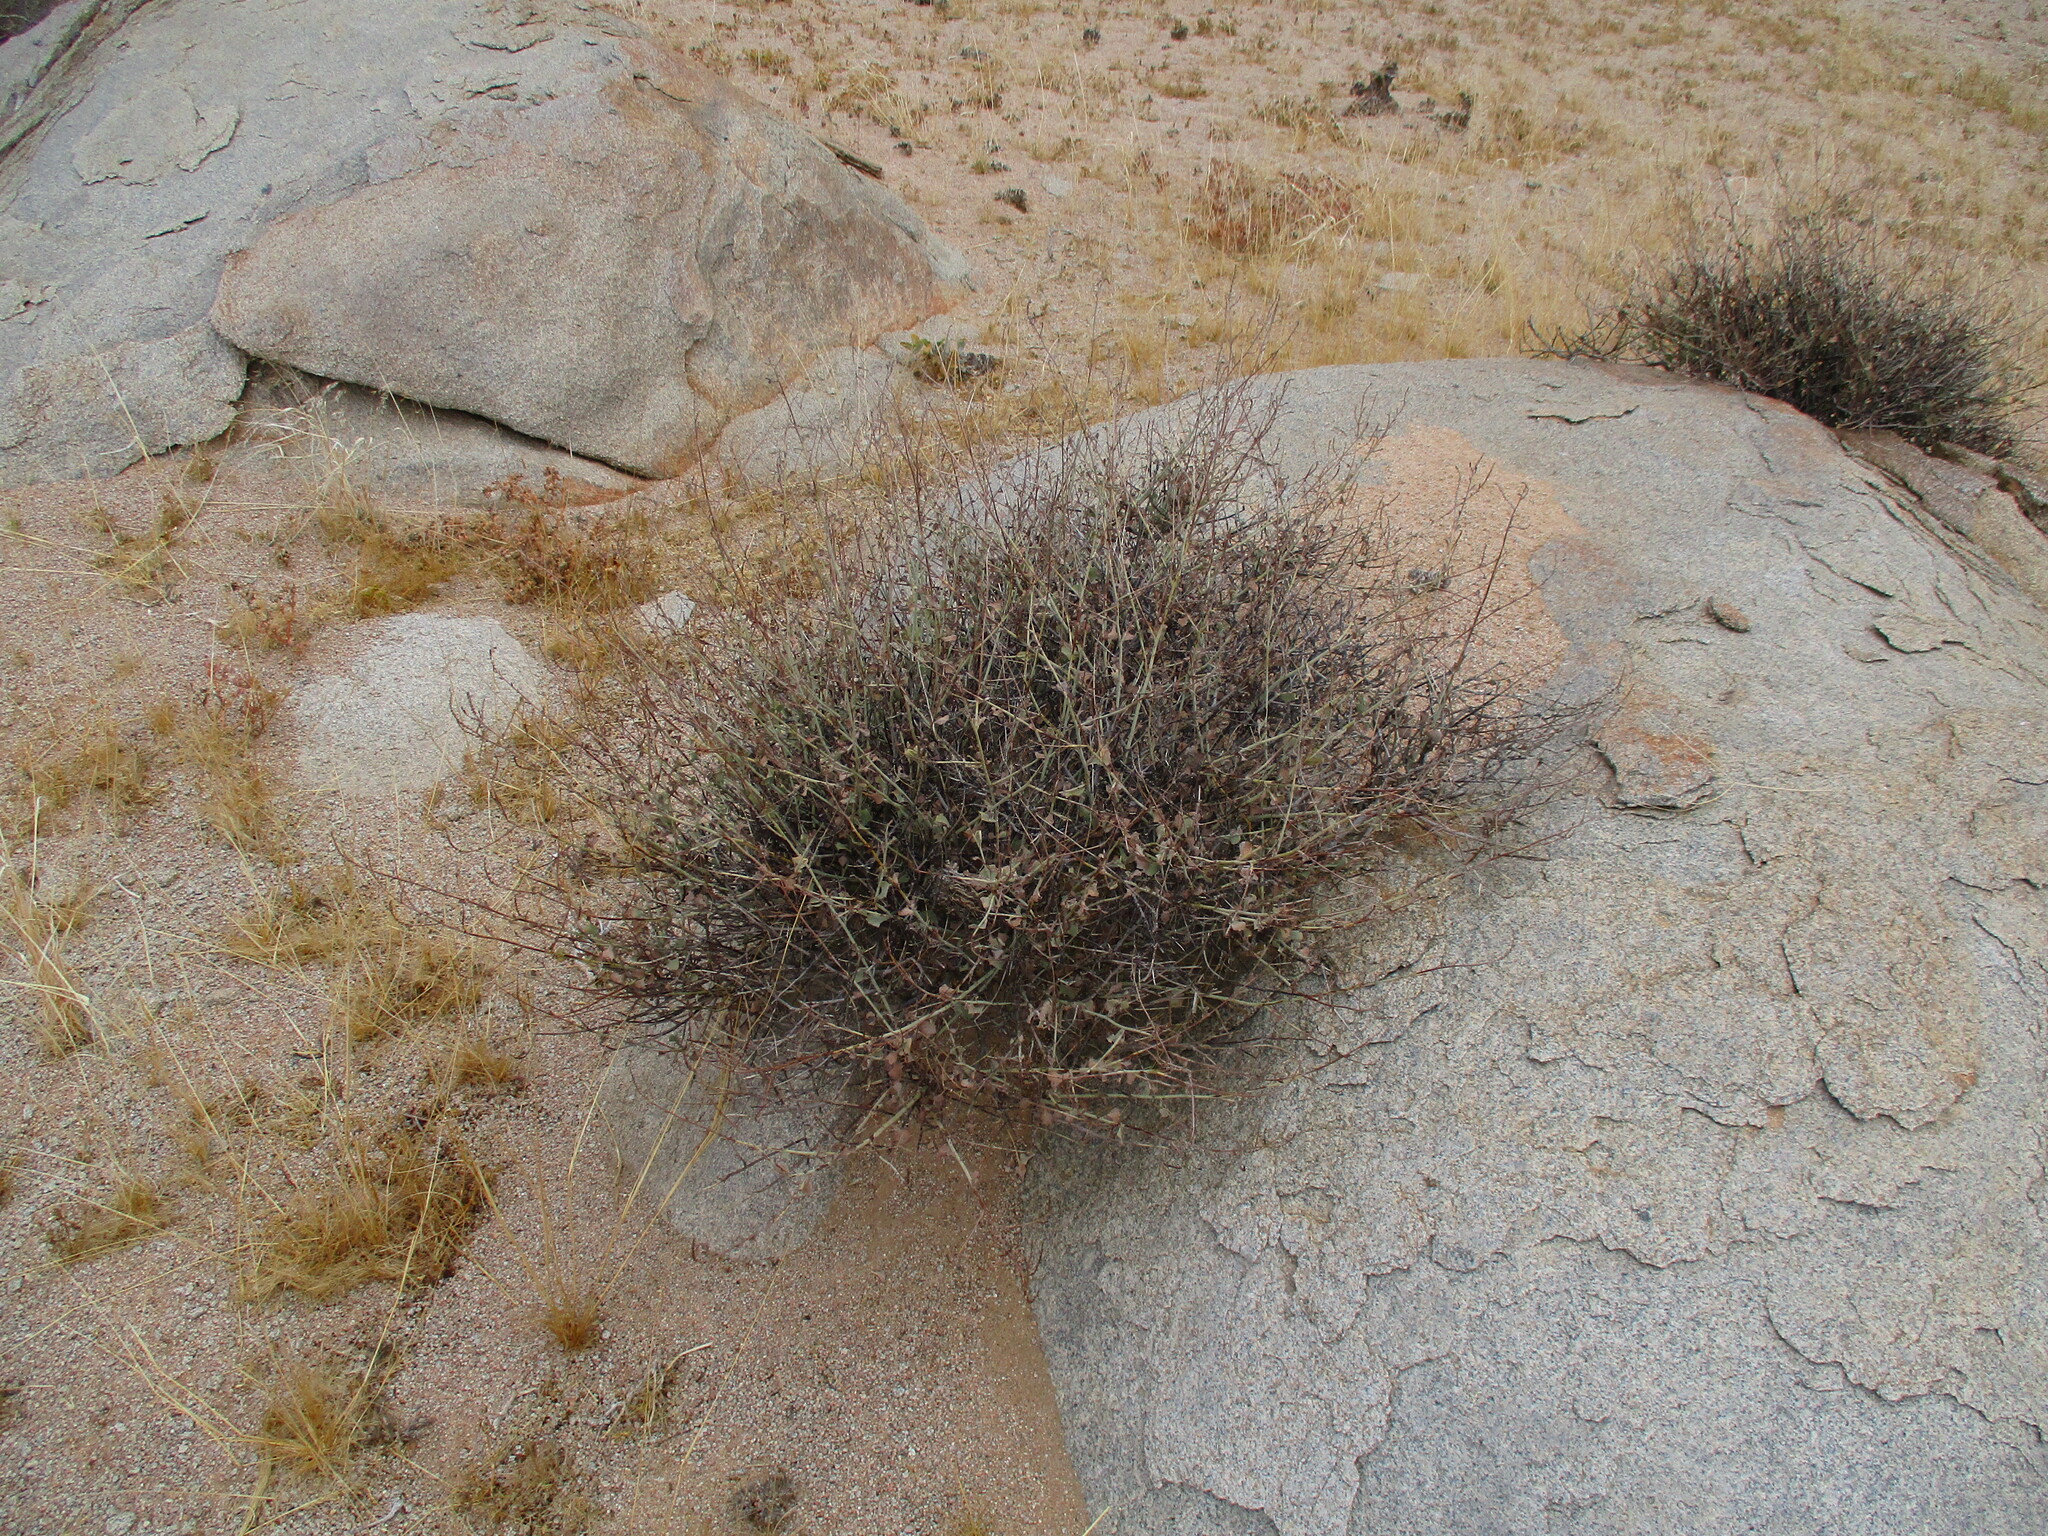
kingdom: Plantae
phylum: Tracheophyta
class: Magnoliopsida
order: Caryophyllales
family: Plumbaginaceae
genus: Dyerophytum
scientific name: Dyerophytum africanum
